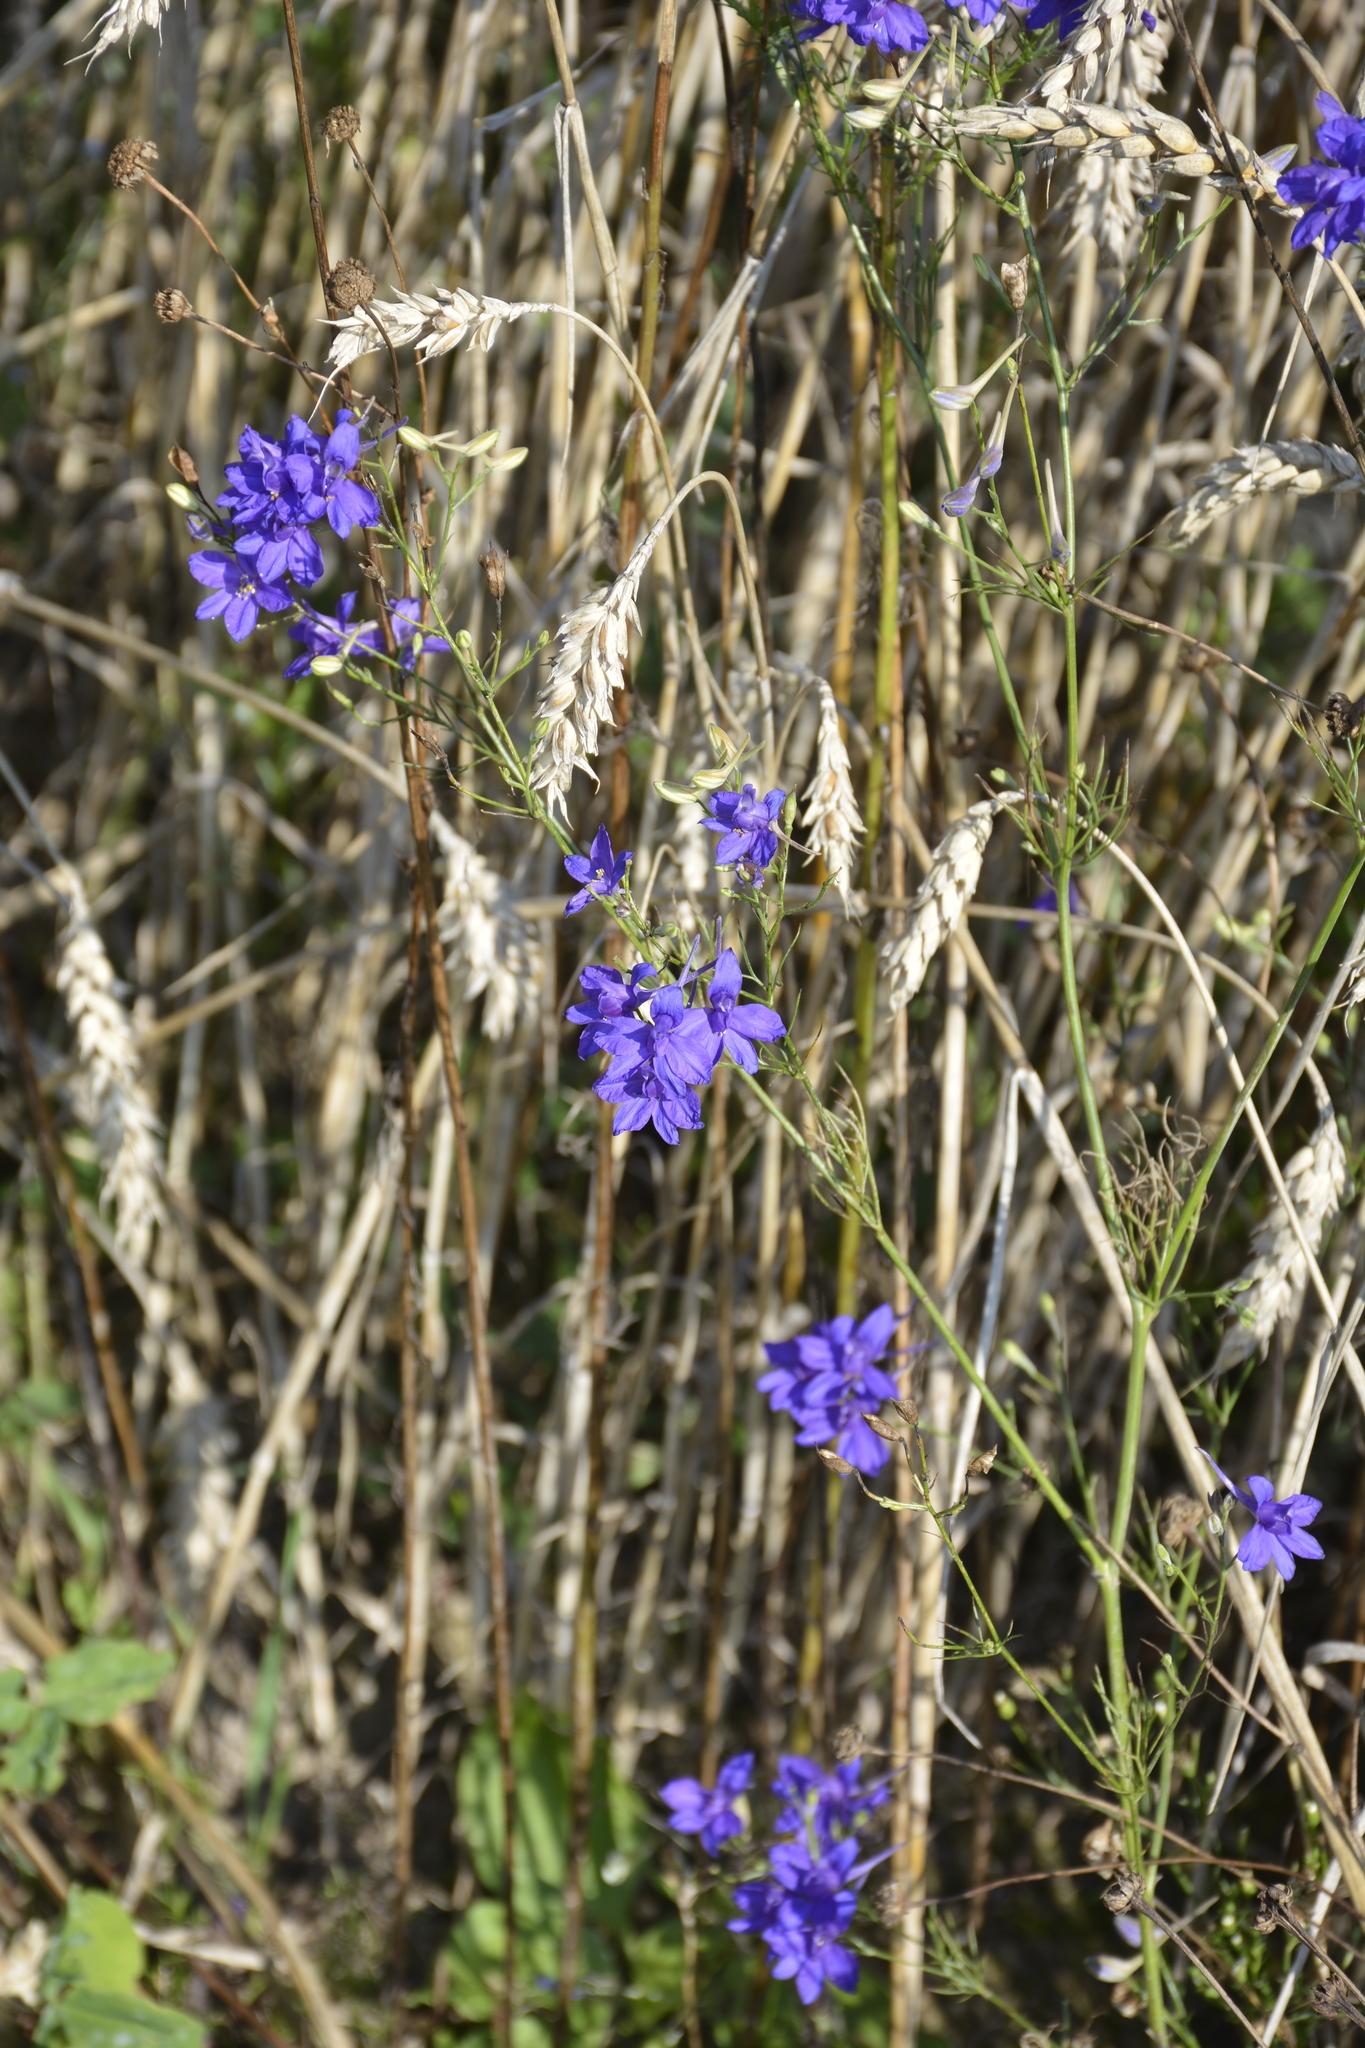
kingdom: Plantae
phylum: Tracheophyta
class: Magnoliopsida
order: Ranunculales
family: Ranunculaceae
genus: Delphinium
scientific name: Delphinium consolida
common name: Branching larkspur
